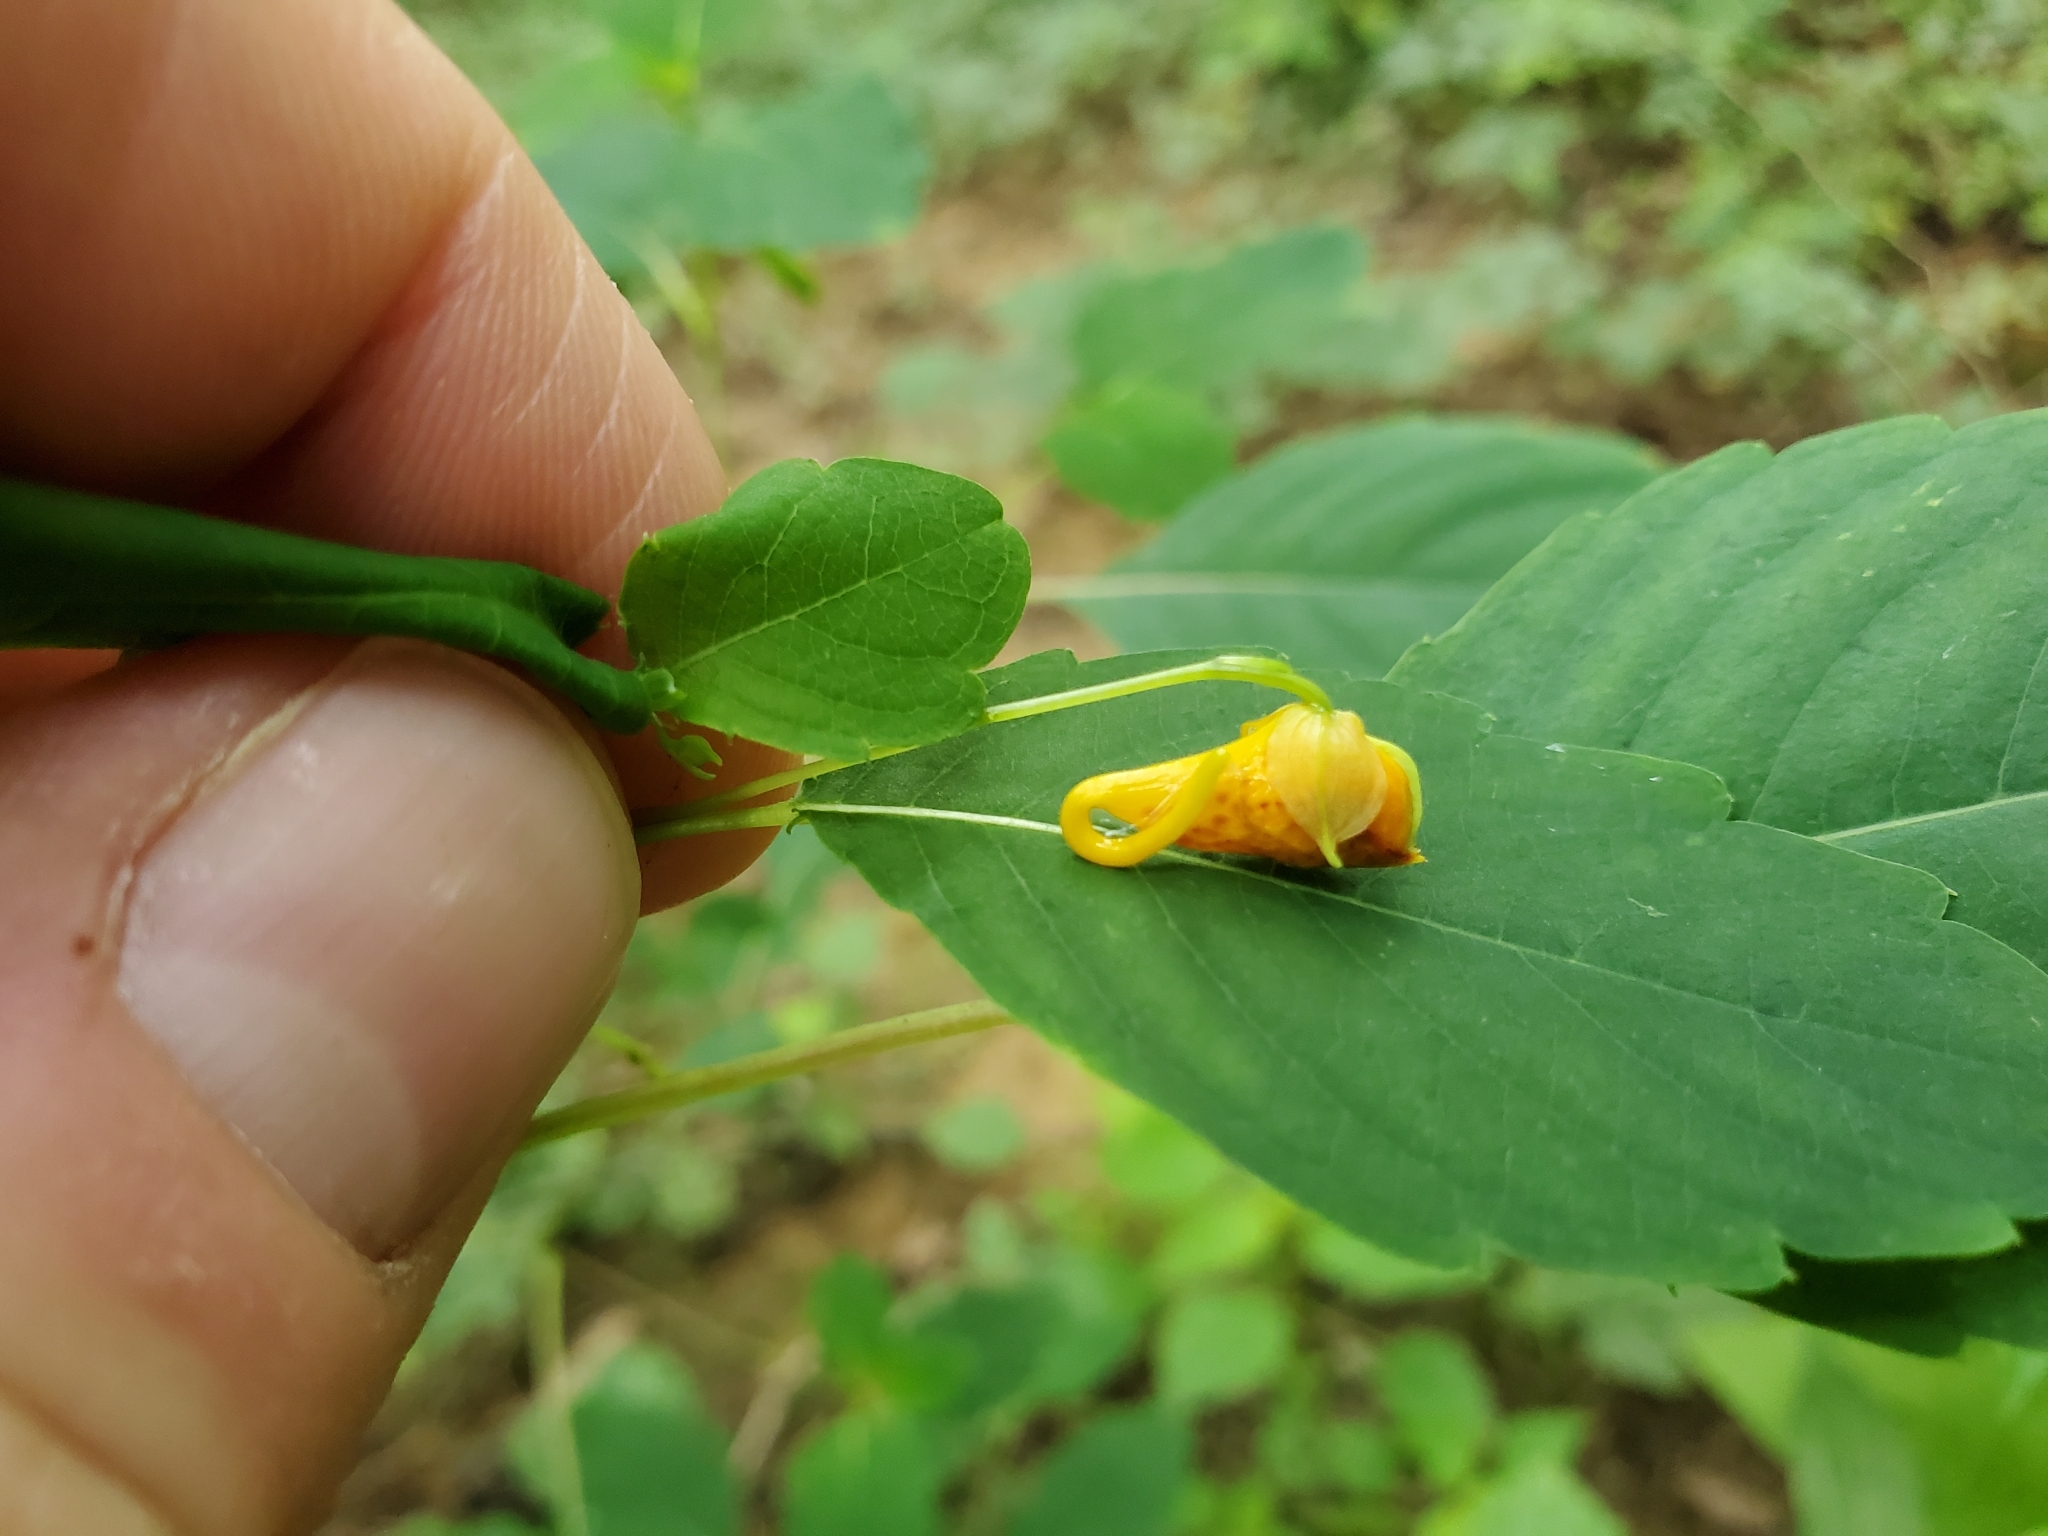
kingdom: Plantae
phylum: Tracheophyta
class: Magnoliopsida
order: Ericales
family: Balsaminaceae
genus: Impatiens
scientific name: Impatiens capensis
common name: Orange balsam
